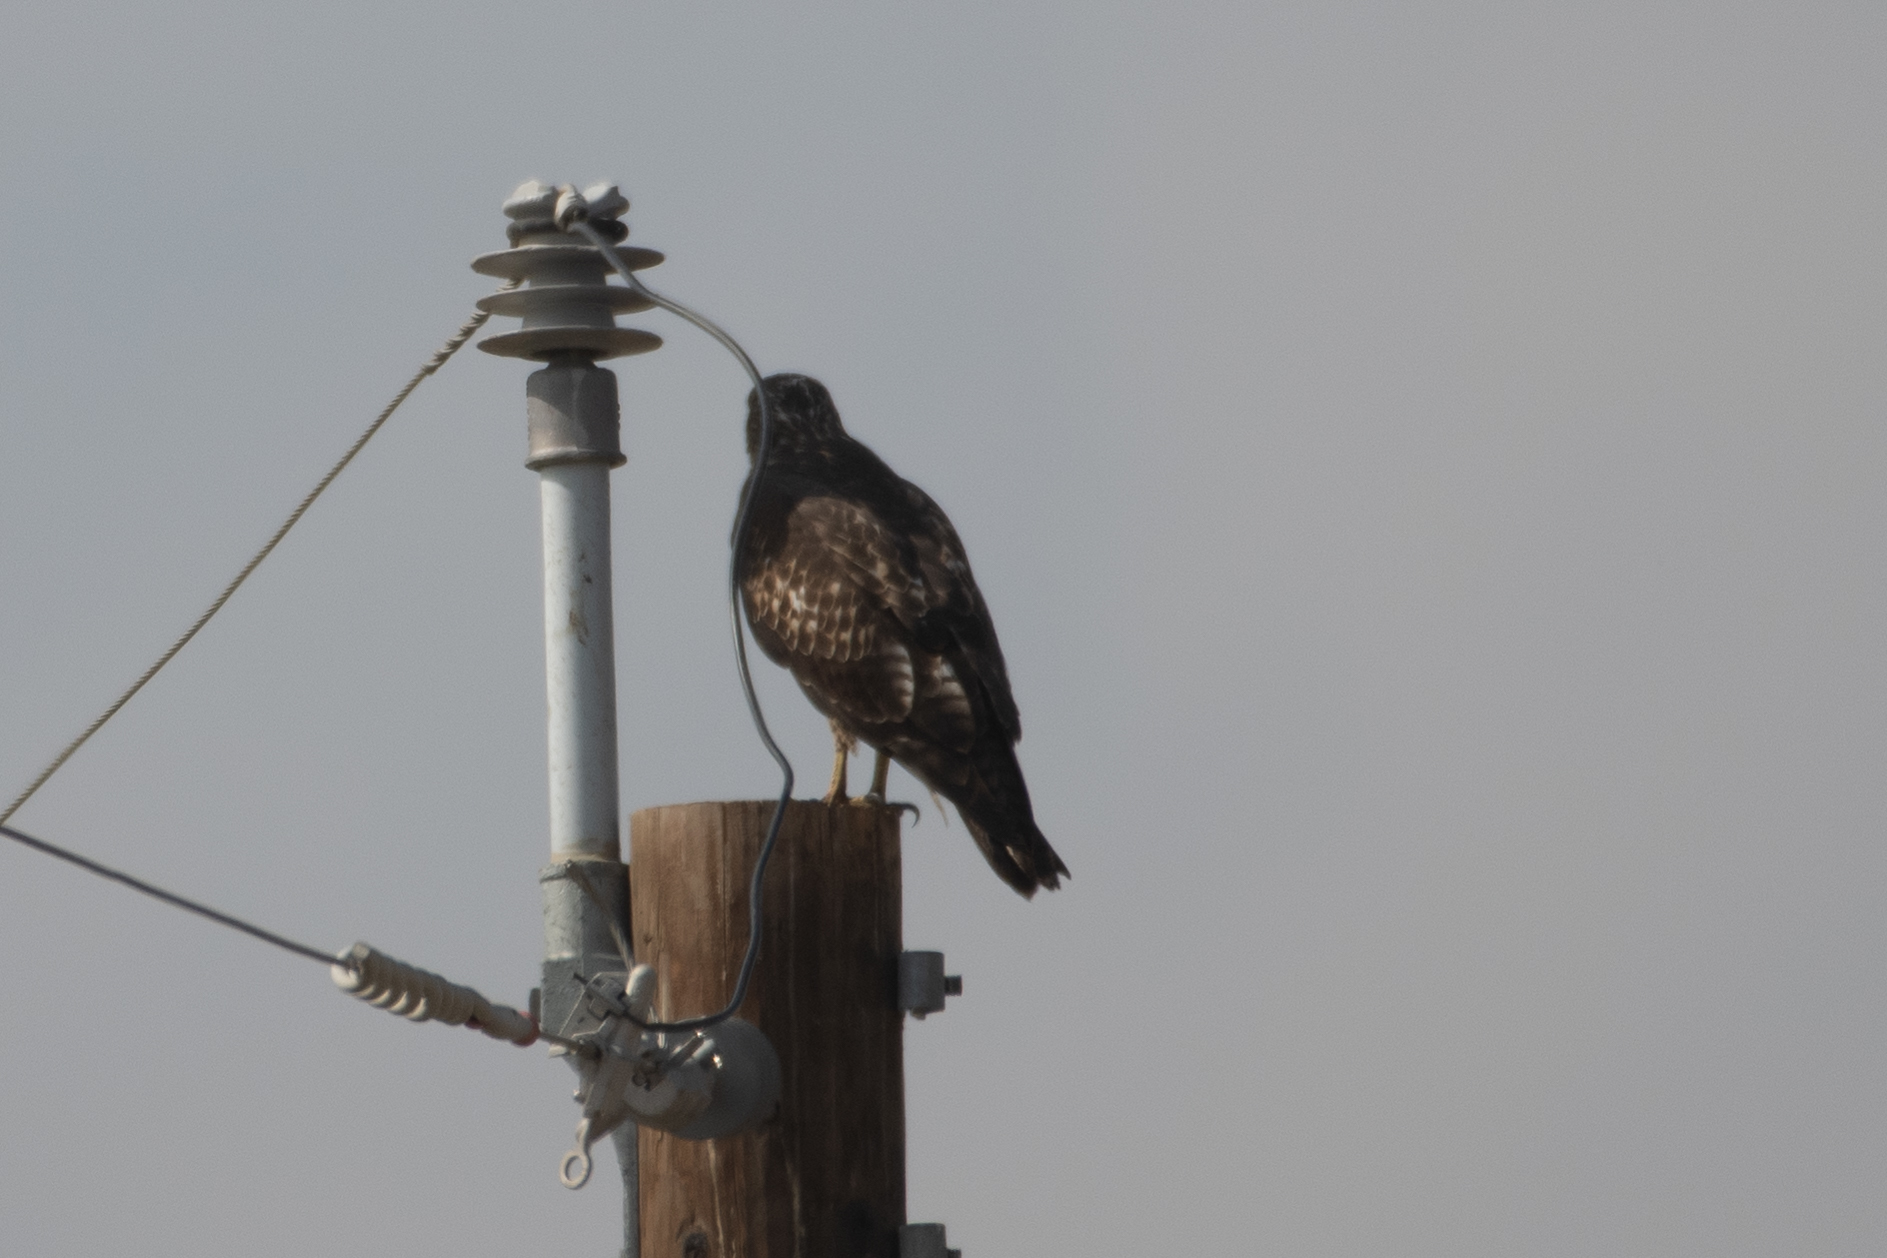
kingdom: Animalia
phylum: Chordata
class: Aves
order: Accipitriformes
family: Accipitridae
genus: Buteo
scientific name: Buteo jamaicensis
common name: Red-tailed hawk
